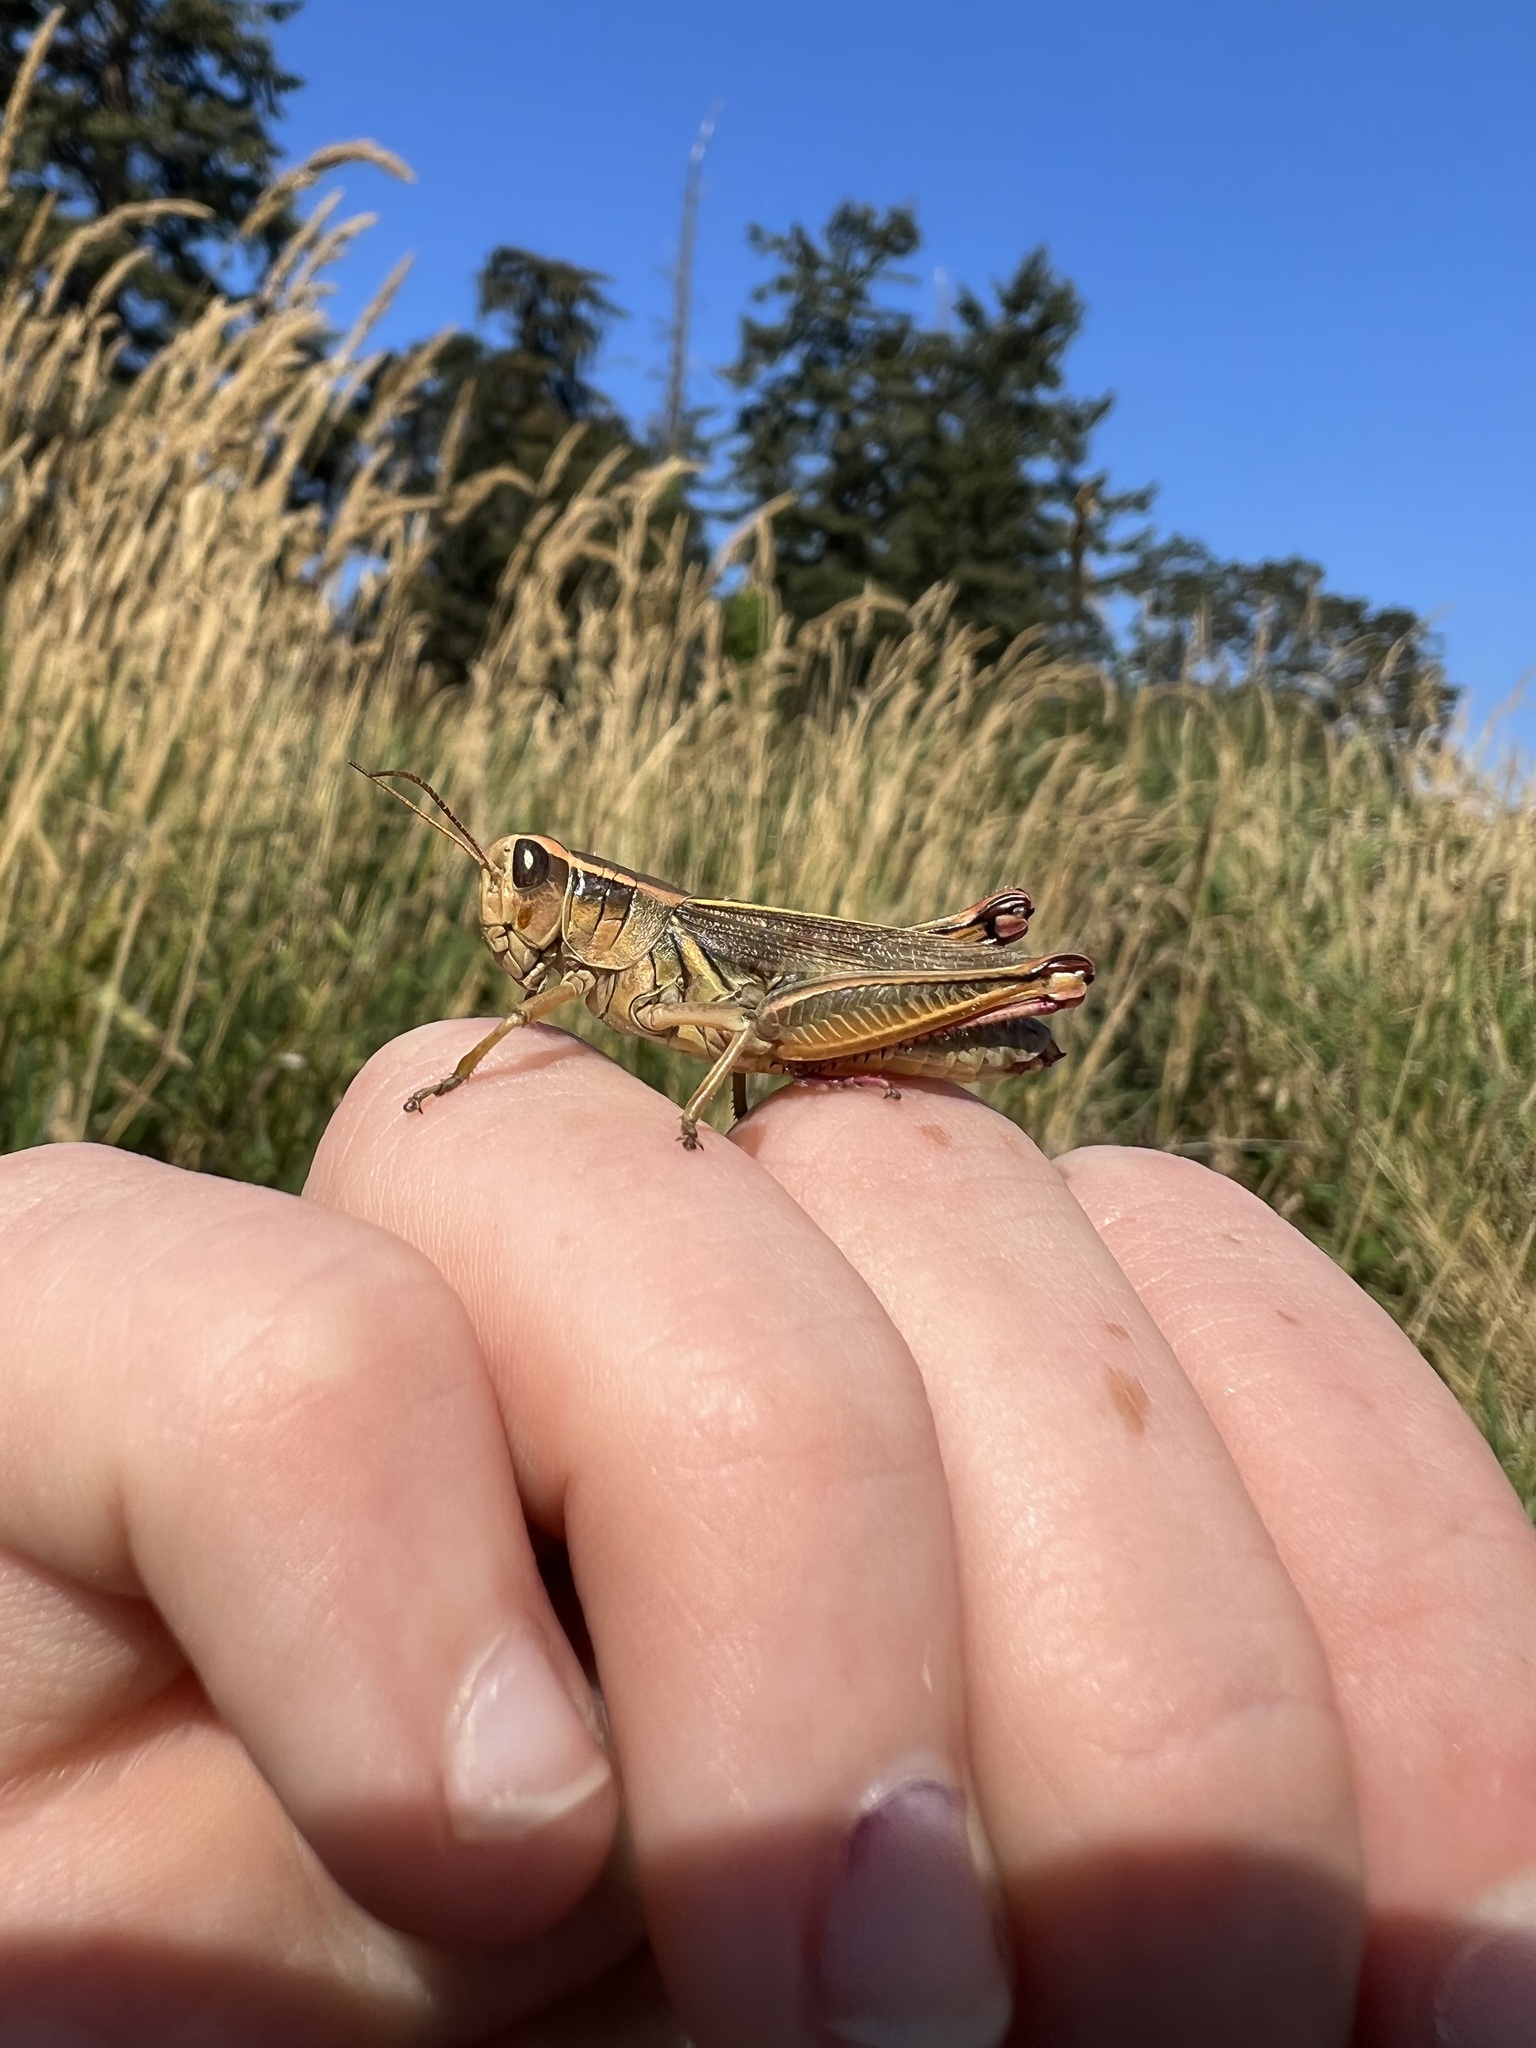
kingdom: Animalia
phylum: Arthropoda
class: Insecta
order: Orthoptera
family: Acrididae
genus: Melanoplus
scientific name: Melanoplus bivittatus
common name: Two-striped grasshopper
